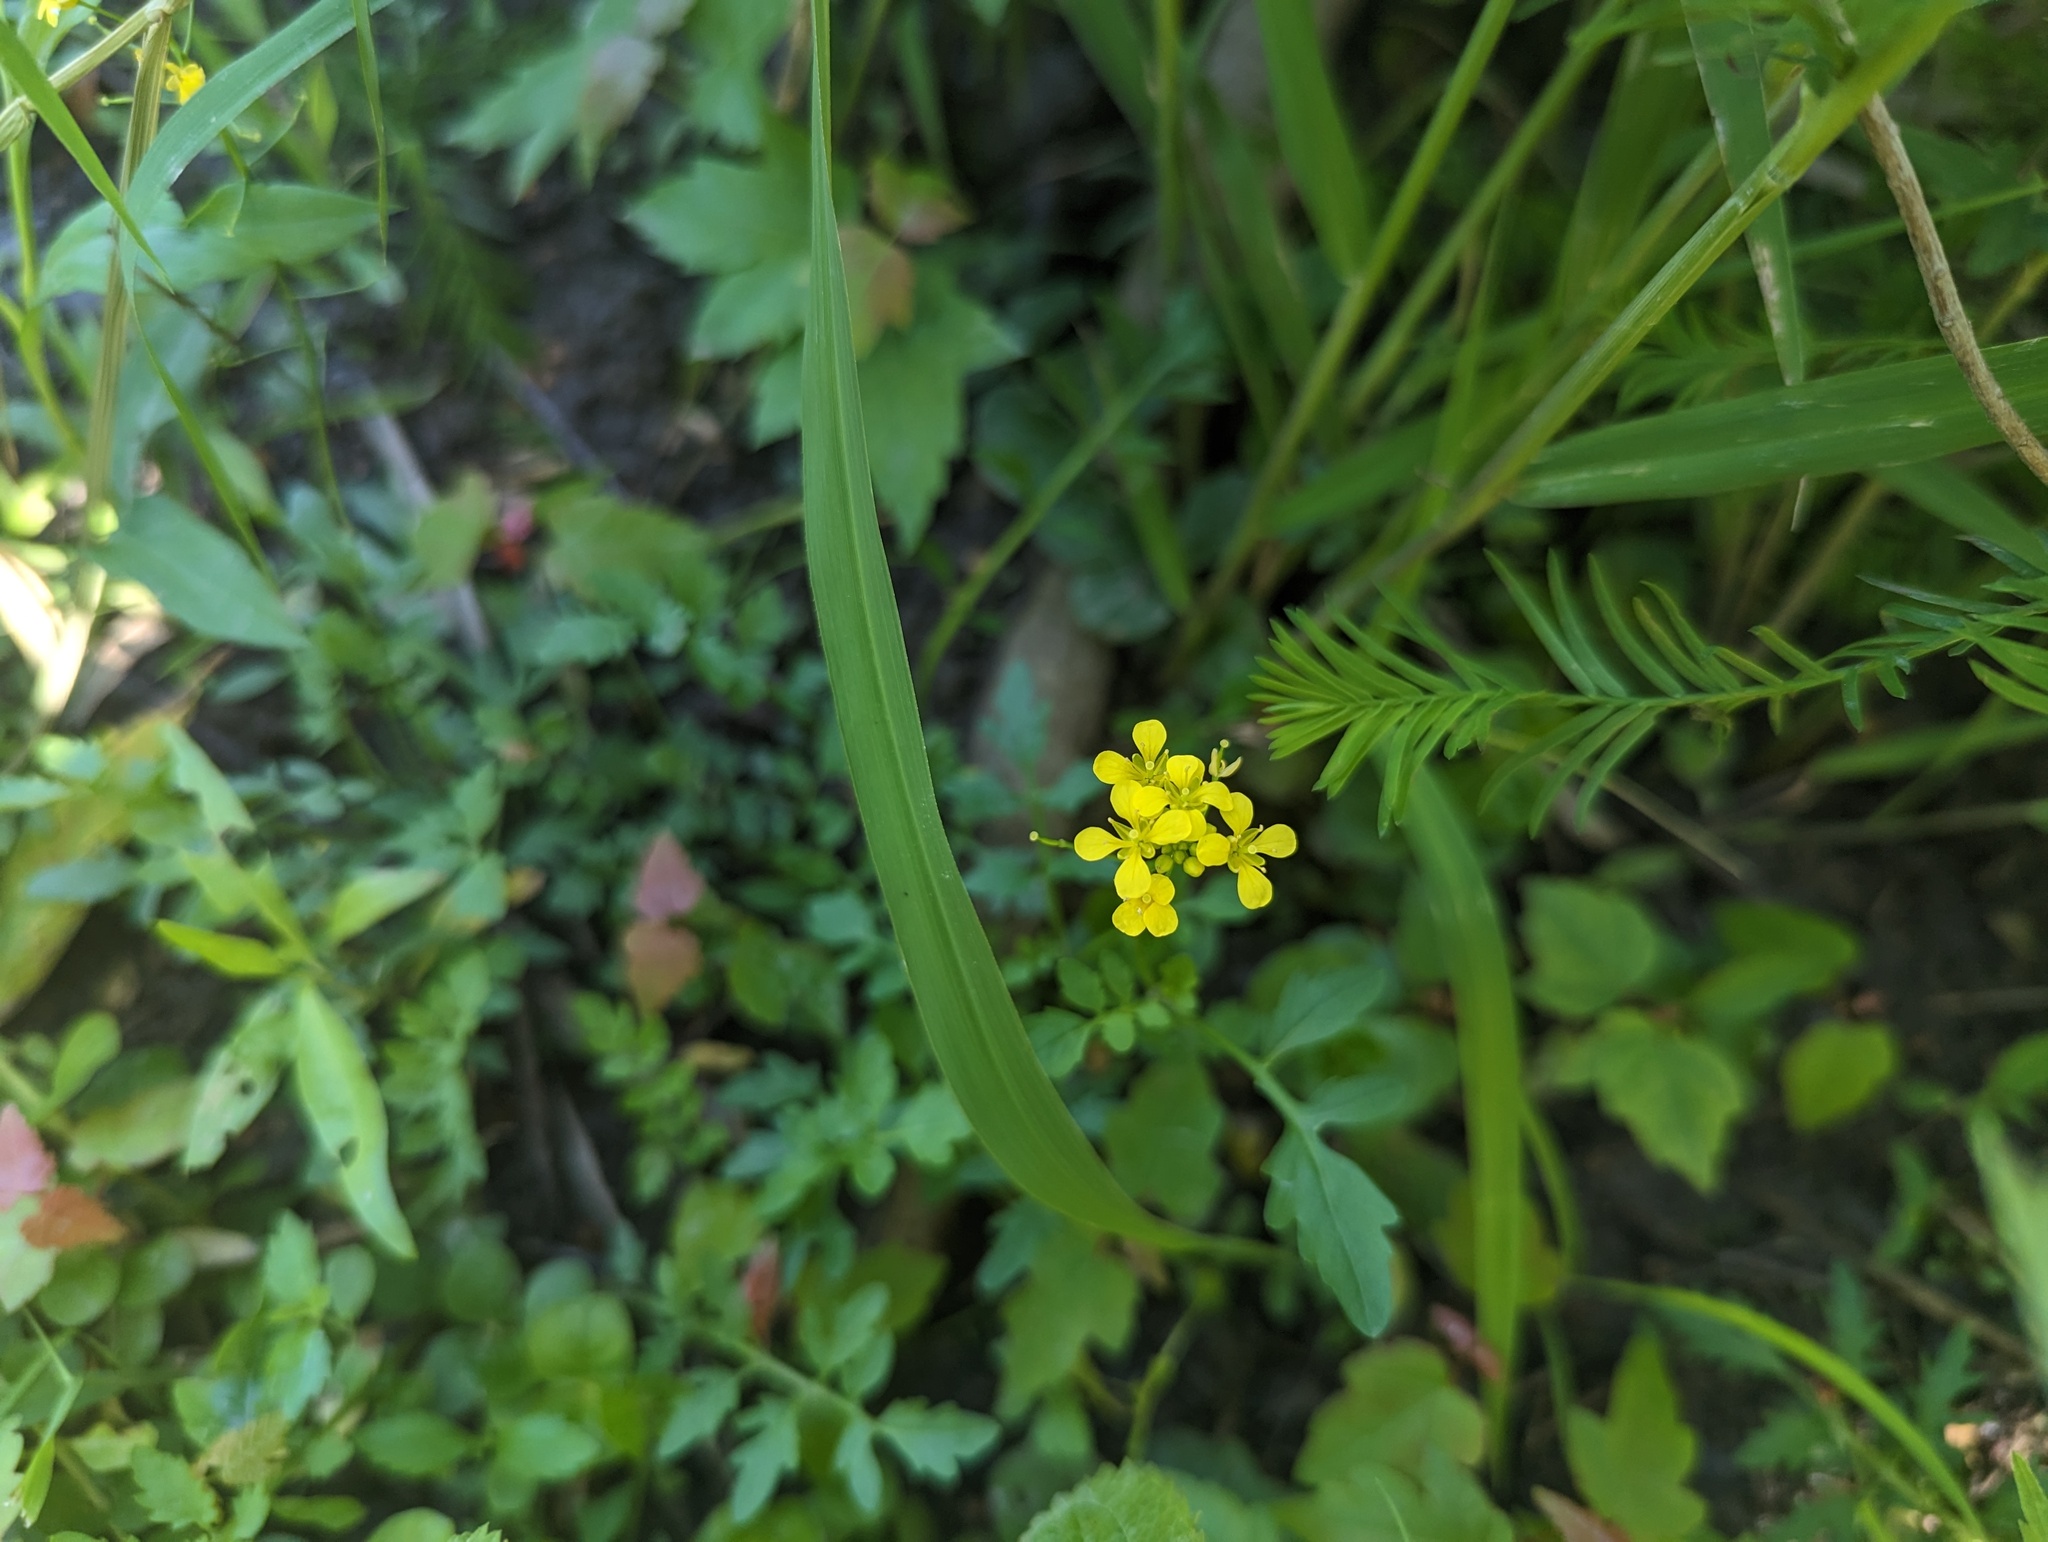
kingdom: Plantae
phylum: Tracheophyta
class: Magnoliopsida
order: Brassicales
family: Brassicaceae
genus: Rorippa
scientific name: Rorippa sylvestris
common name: Creeping yellowcress
